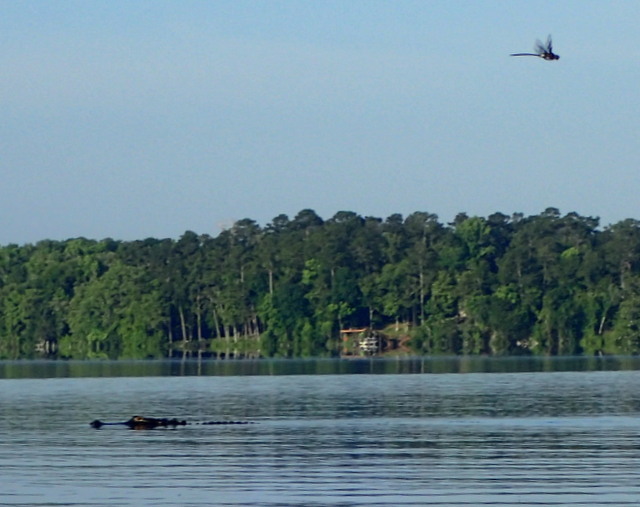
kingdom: Animalia
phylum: Chordata
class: Crocodylia
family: Alligatoridae
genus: Alligator
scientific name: Alligator mississippiensis
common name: American alligator
